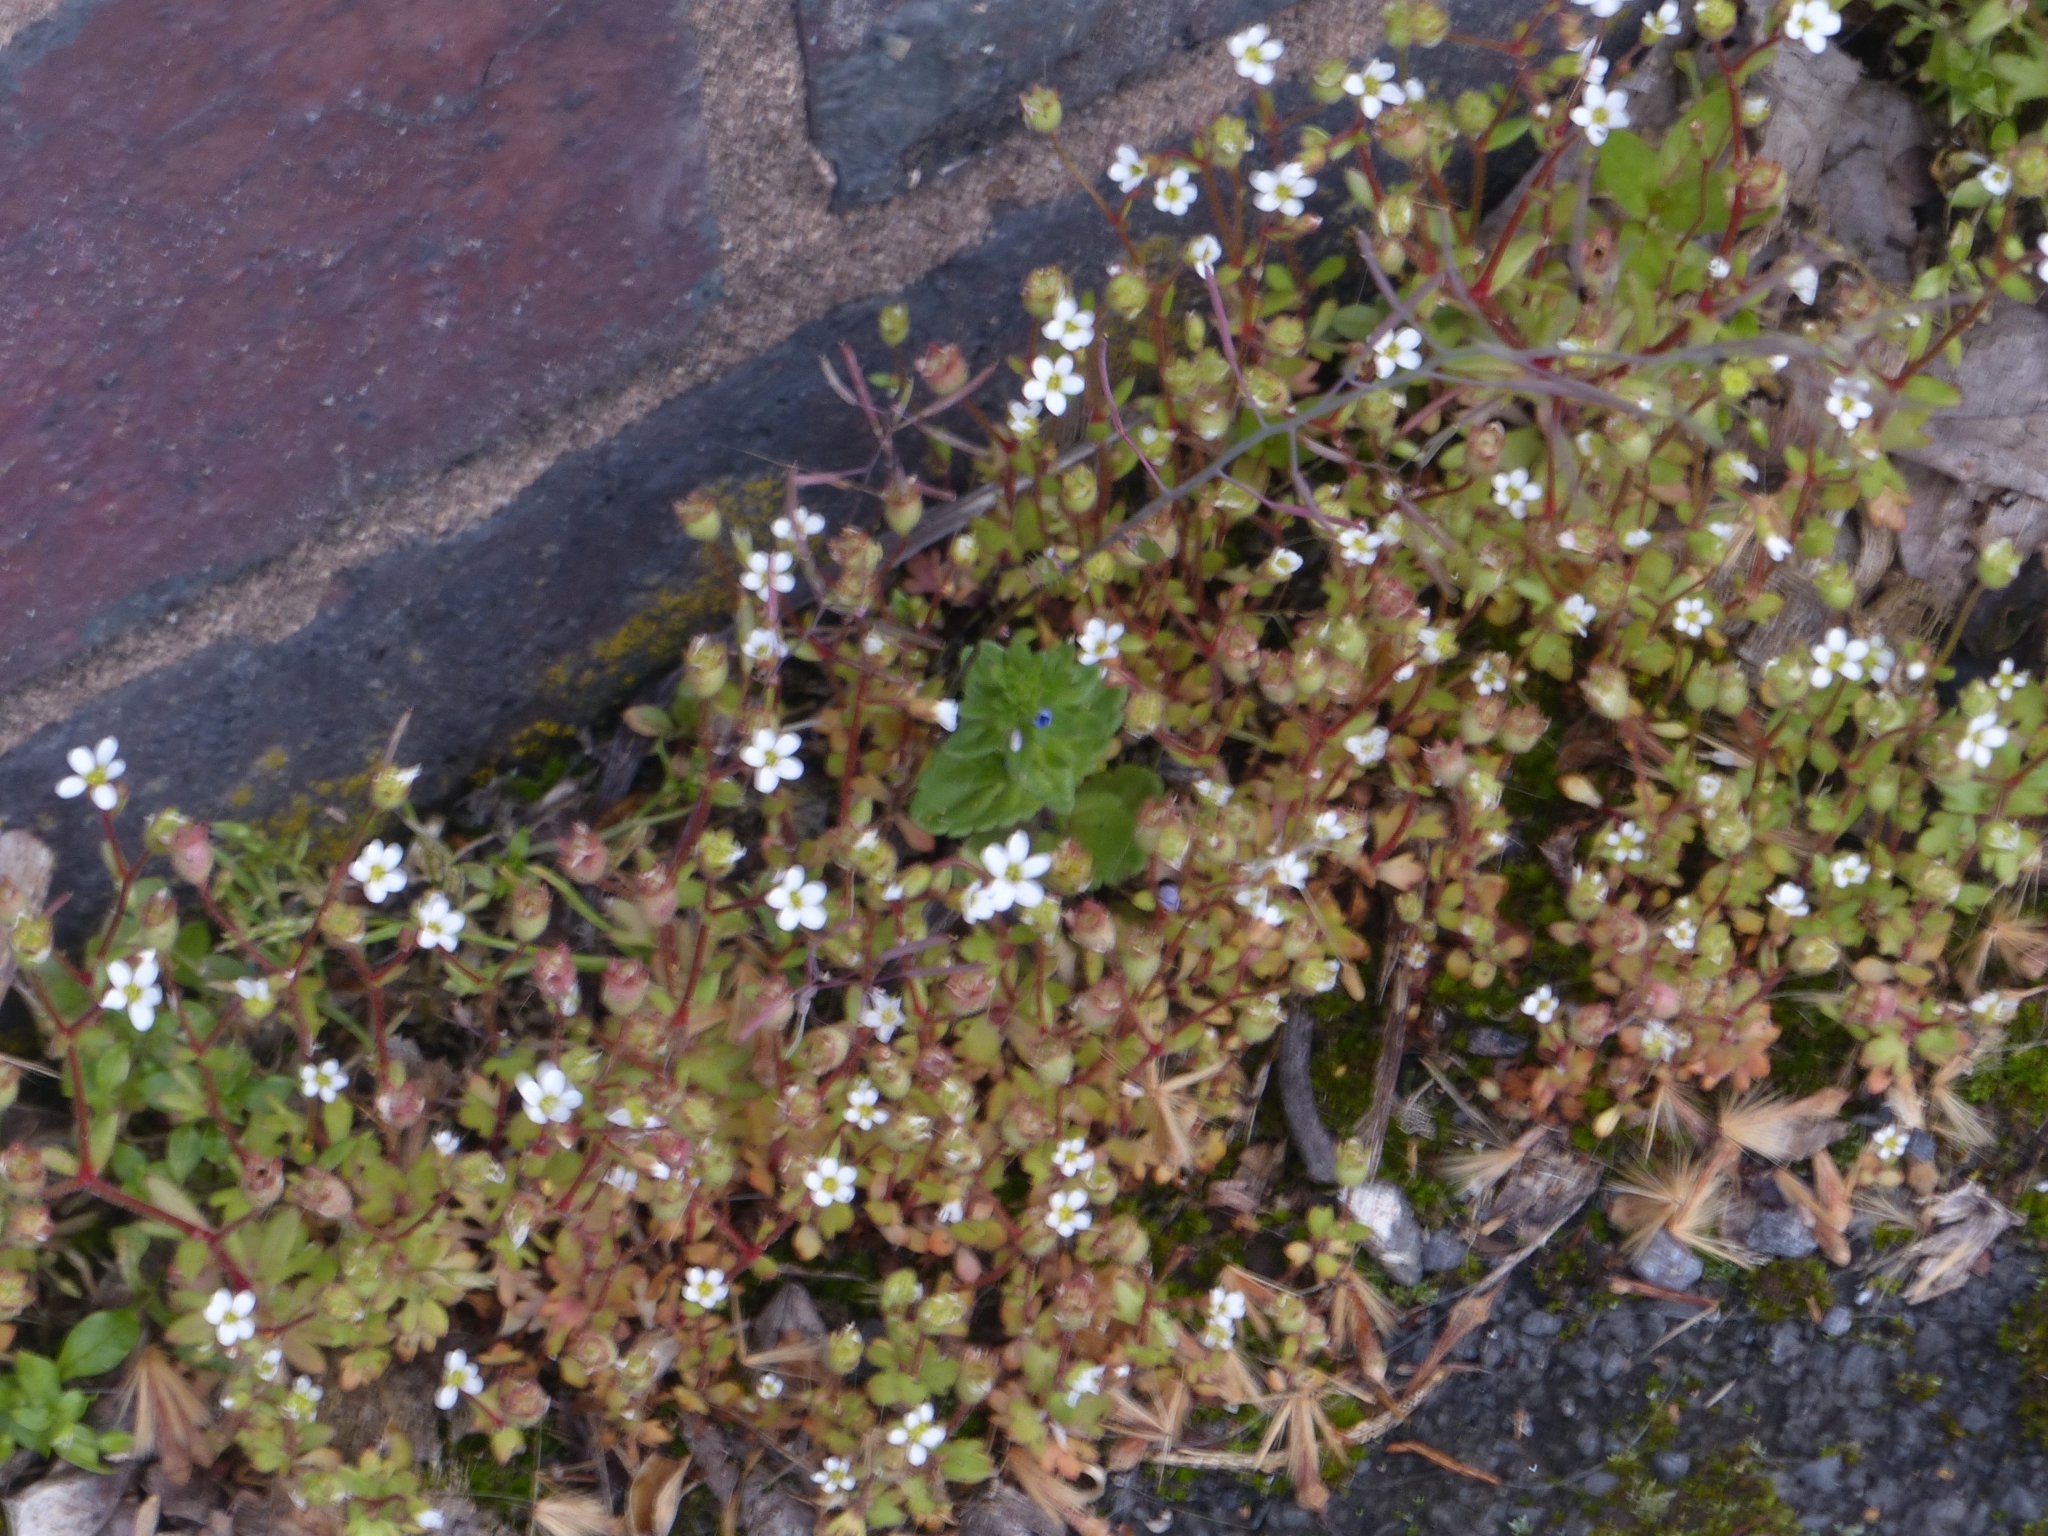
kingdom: Plantae
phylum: Tracheophyta
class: Magnoliopsida
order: Saxifragales
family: Saxifragaceae
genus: Saxifraga
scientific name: Saxifraga tridactylites
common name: Rue-leaved saxifrage
